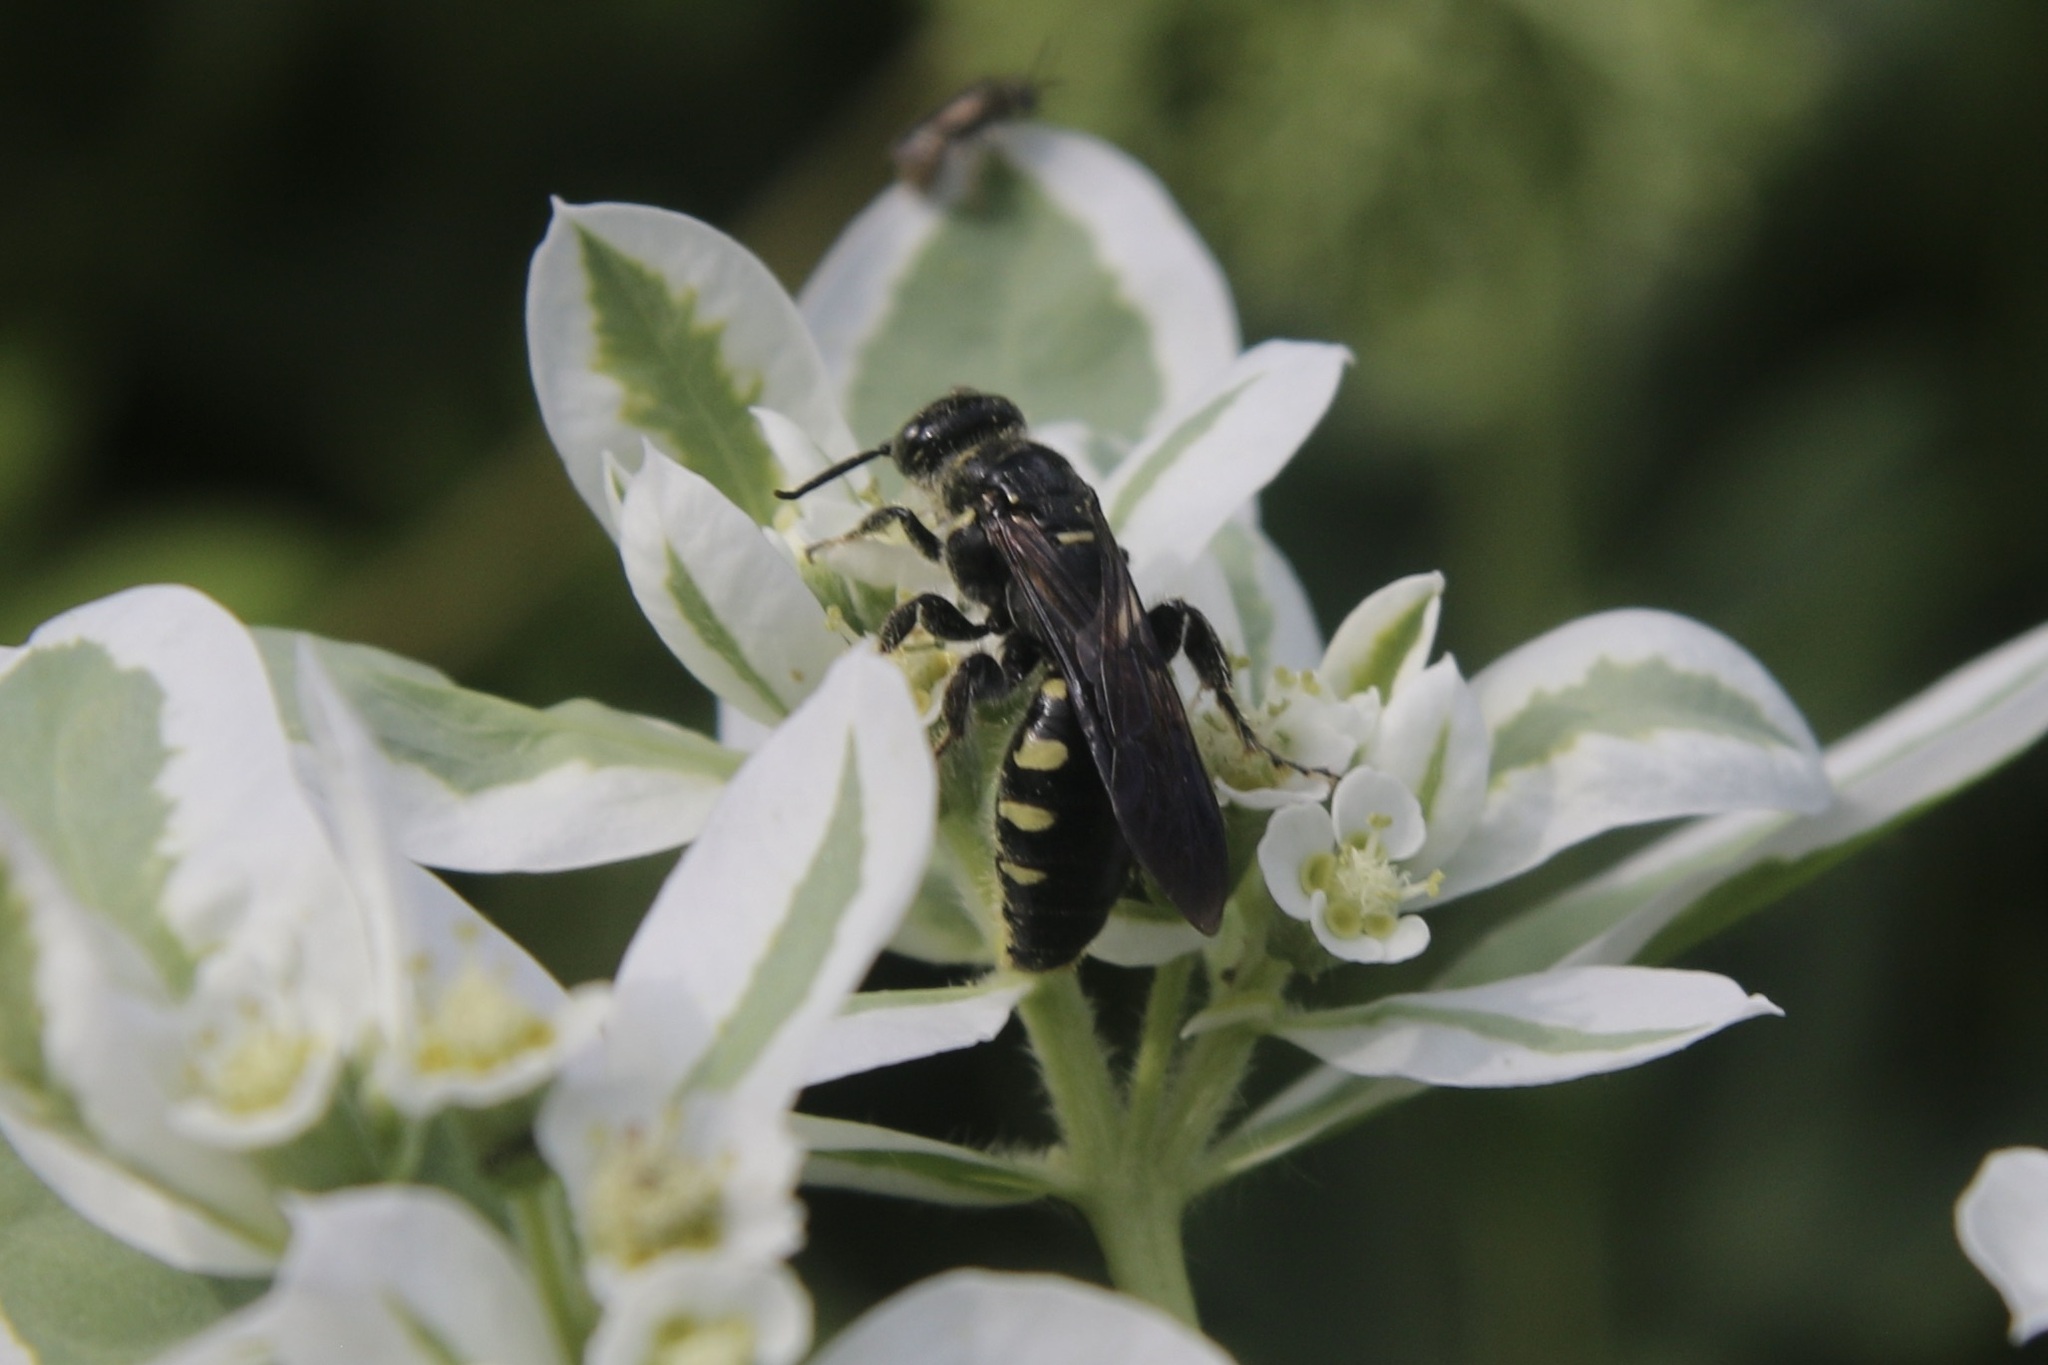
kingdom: Animalia
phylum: Arthropoda
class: Insecta
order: Hymenoptera
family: Tiphiidae
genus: Myzinum
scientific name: Myzinum obscurum
